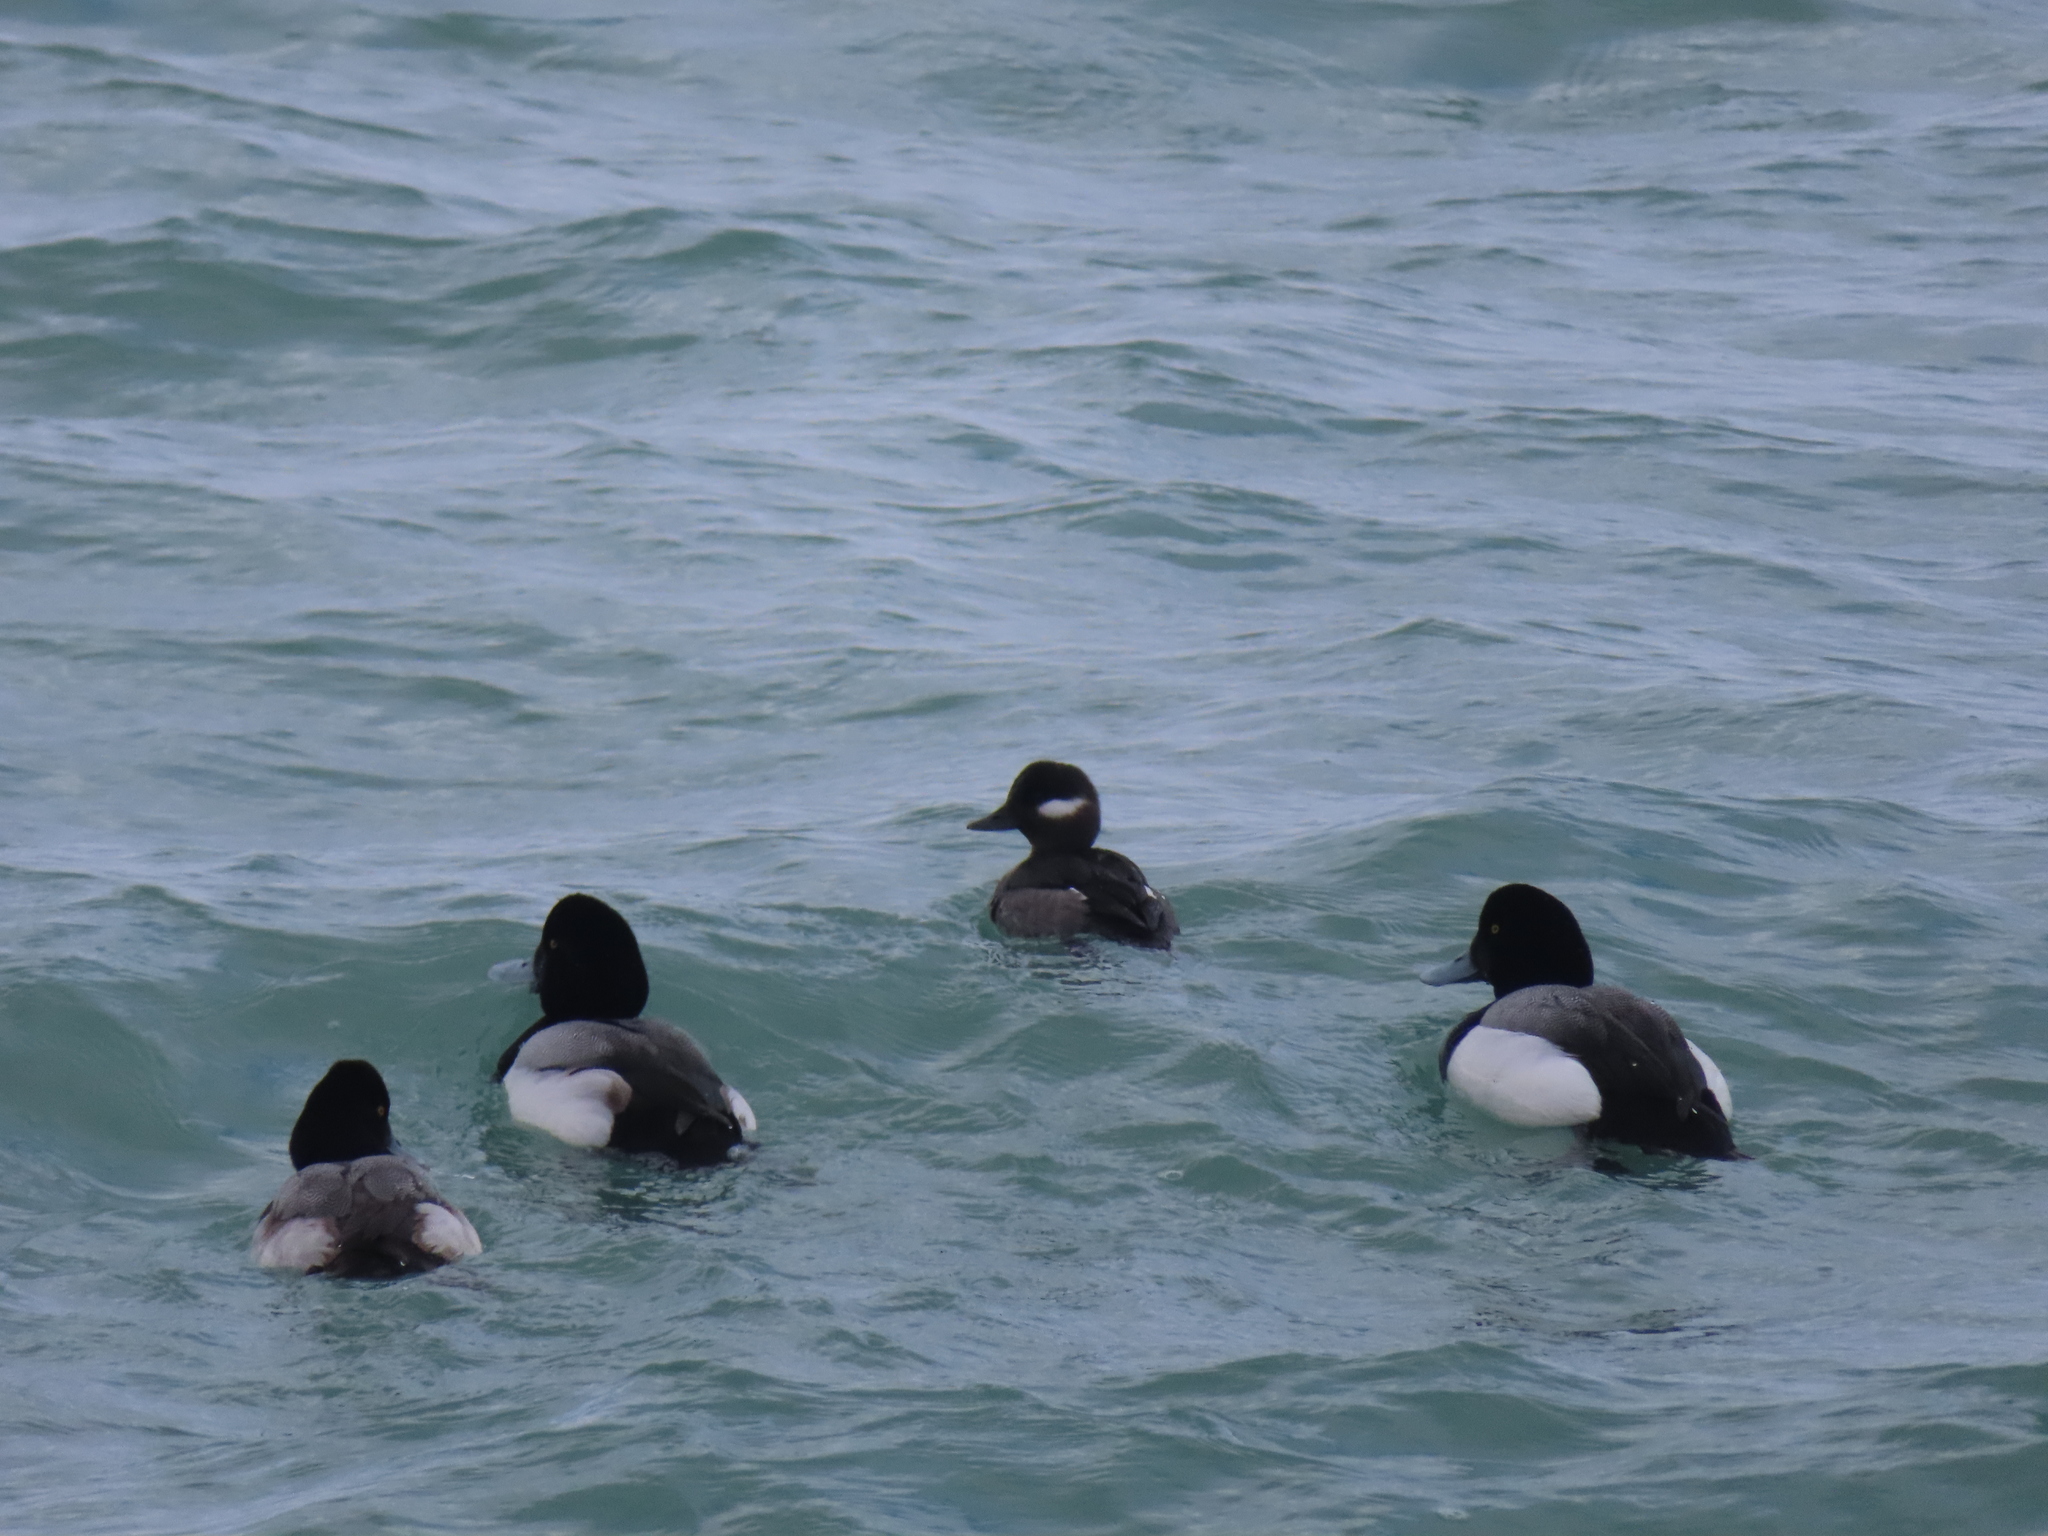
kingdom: Animalia
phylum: Chordata
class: Aves
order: Anseriformes
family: Anatidae
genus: Bucephala
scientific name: Bucephala albeola
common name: Bufflehead
